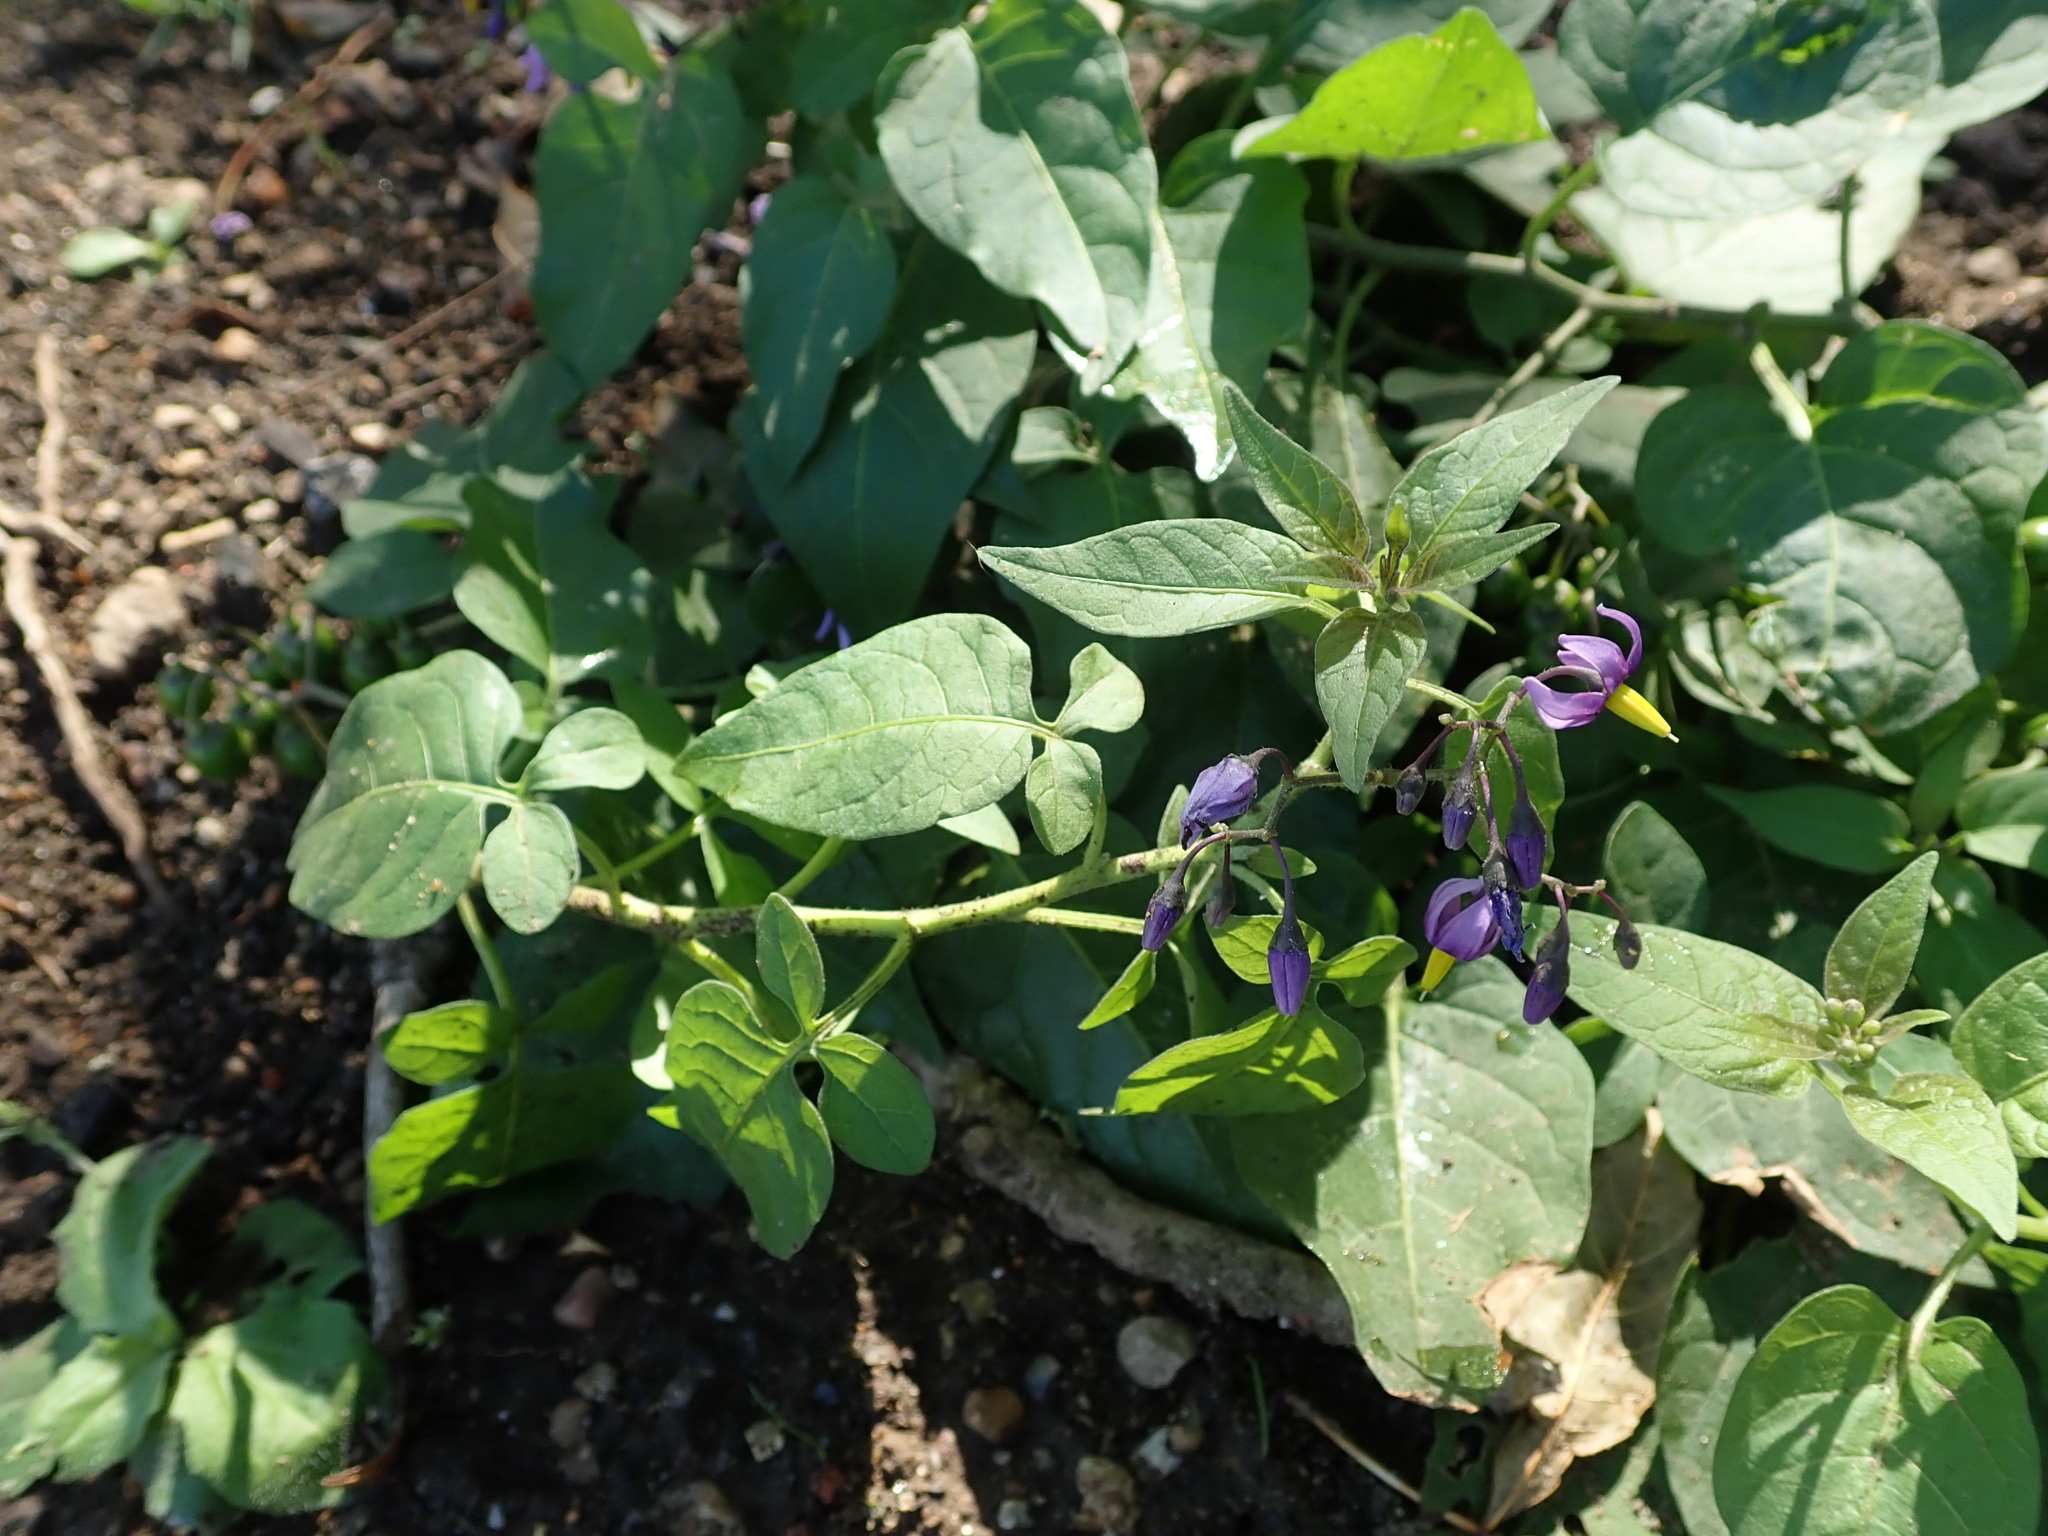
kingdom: Plantae
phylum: Tracheophyta
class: Magnoliopsida
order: Solanales
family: Solanaceae
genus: Solanum
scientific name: Solanum dulcamara
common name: Climbing nightshade
